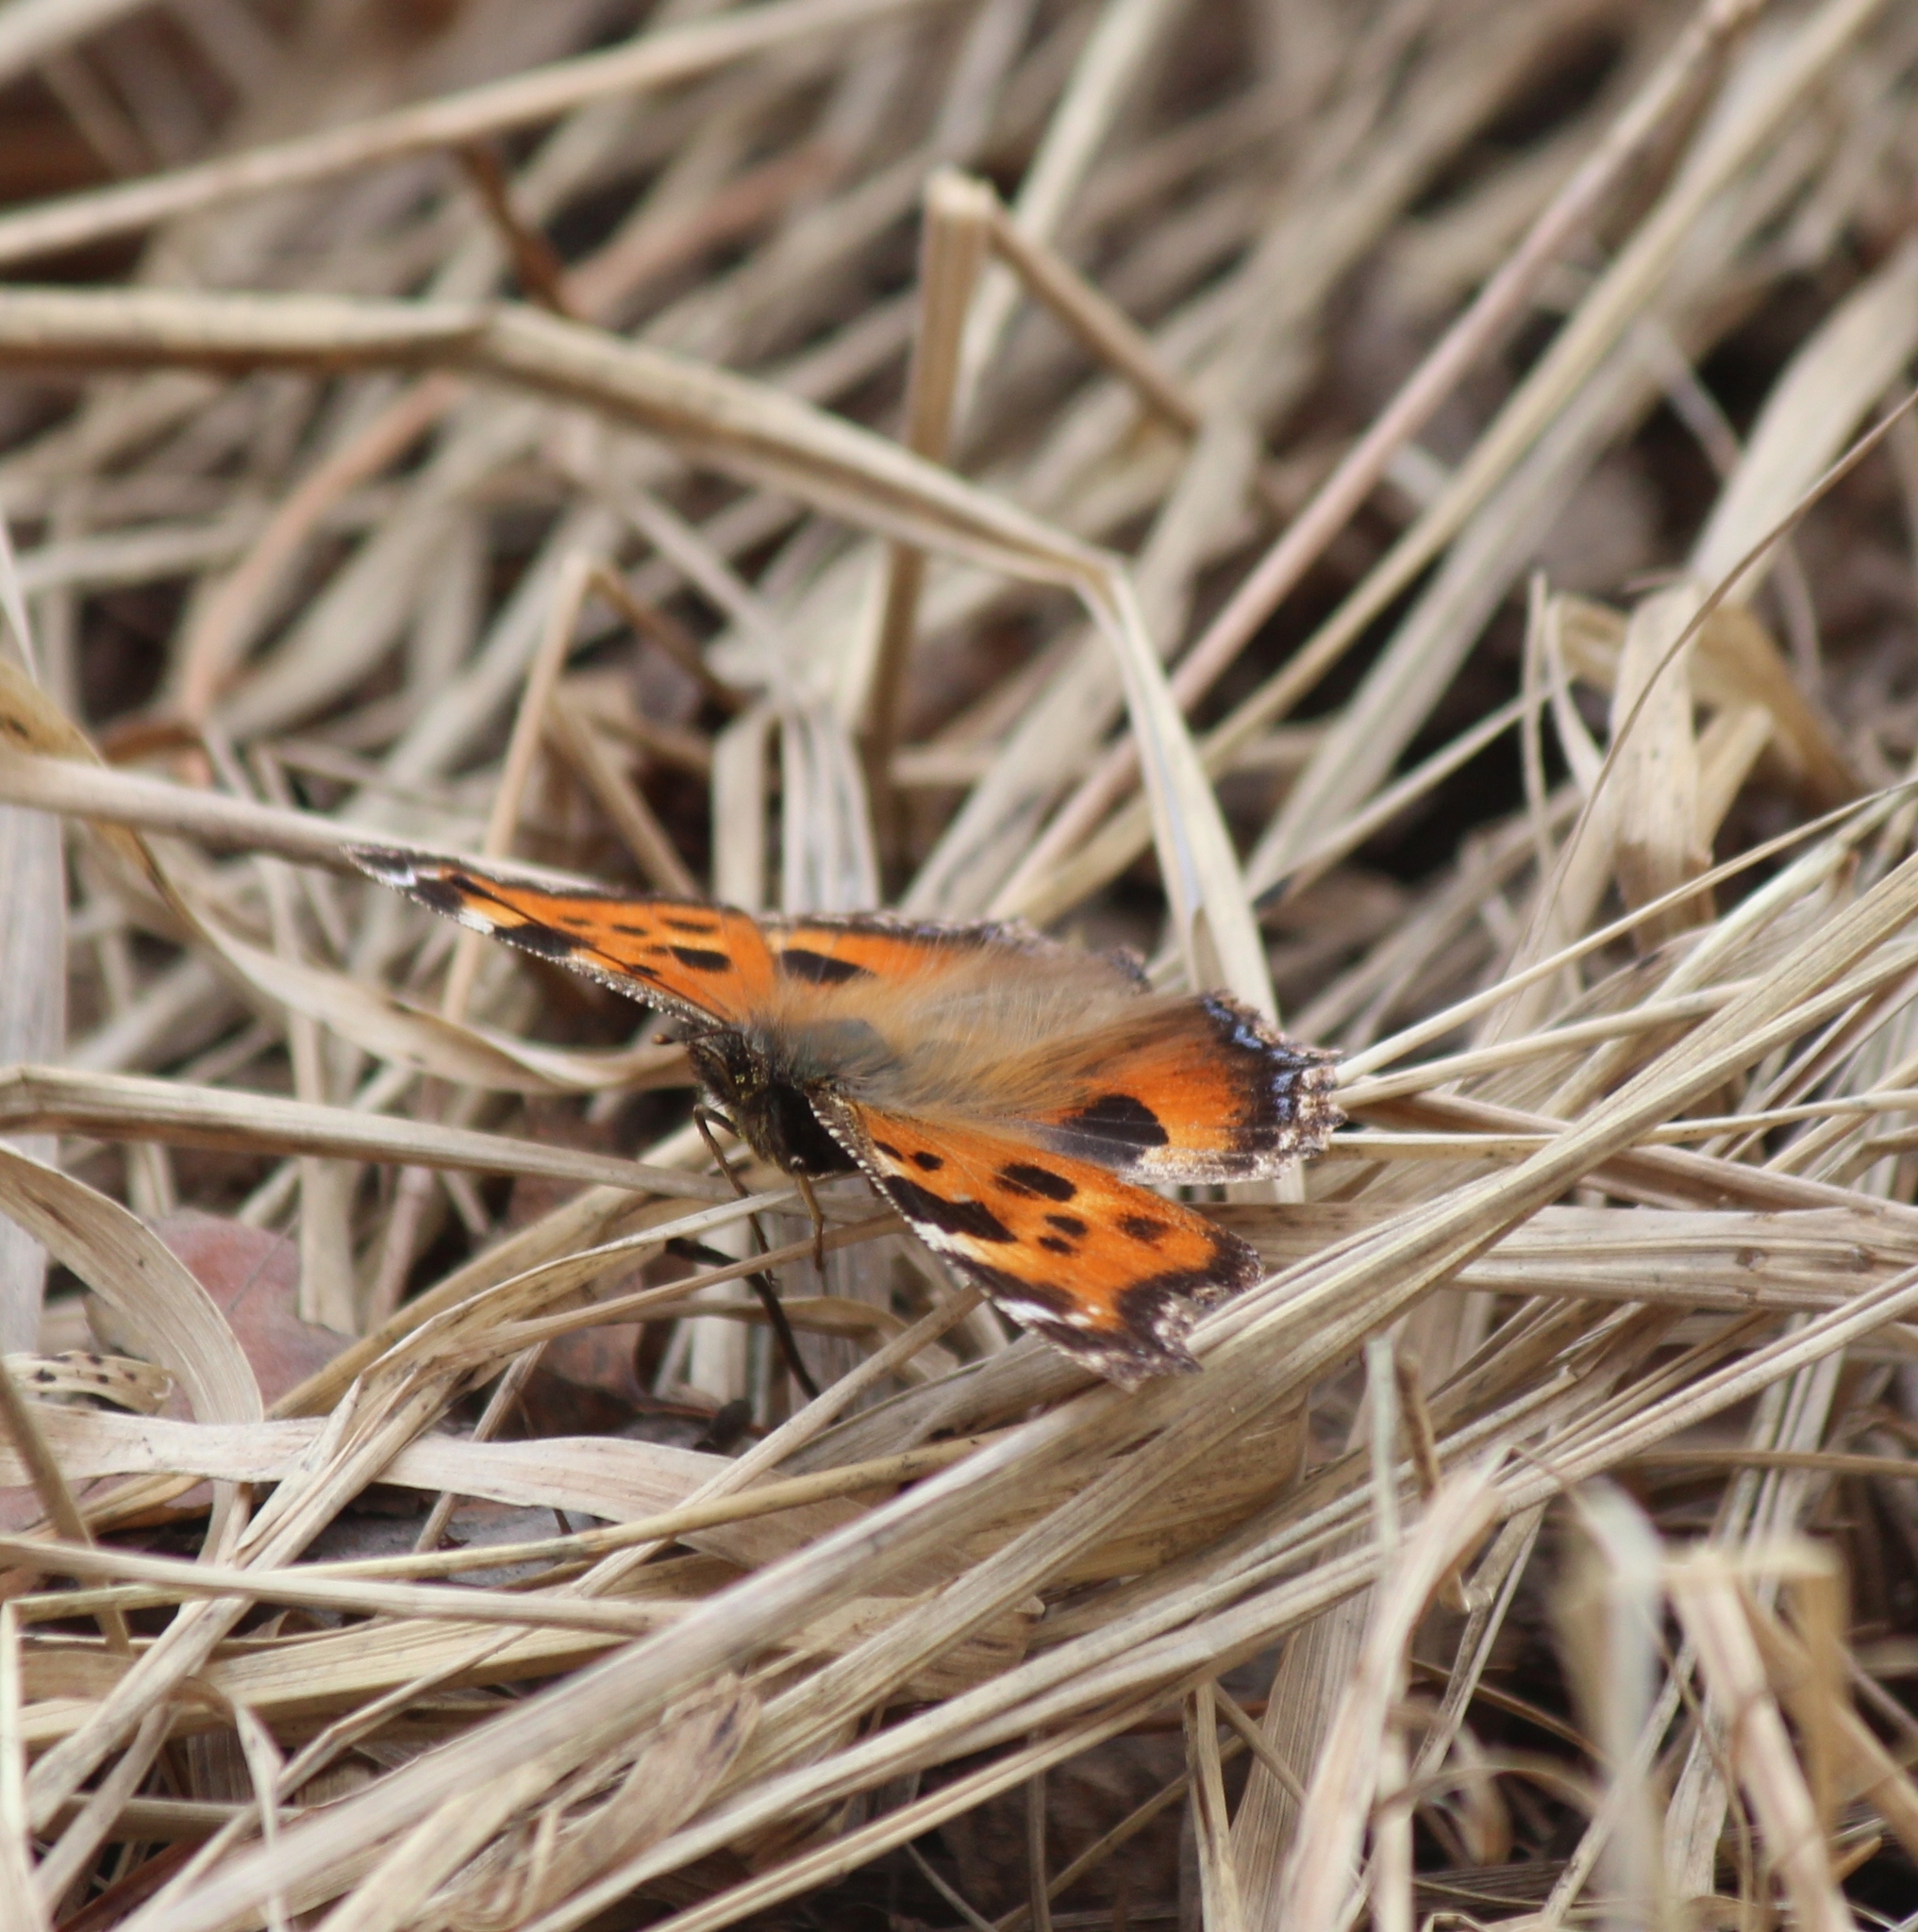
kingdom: Animalia
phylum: Arthropoda
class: Insecta
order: Lepidoptera
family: Nymphalidae
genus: Nymphalis
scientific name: Nymphalis xanthomelas
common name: Scarce tortoiseshell
